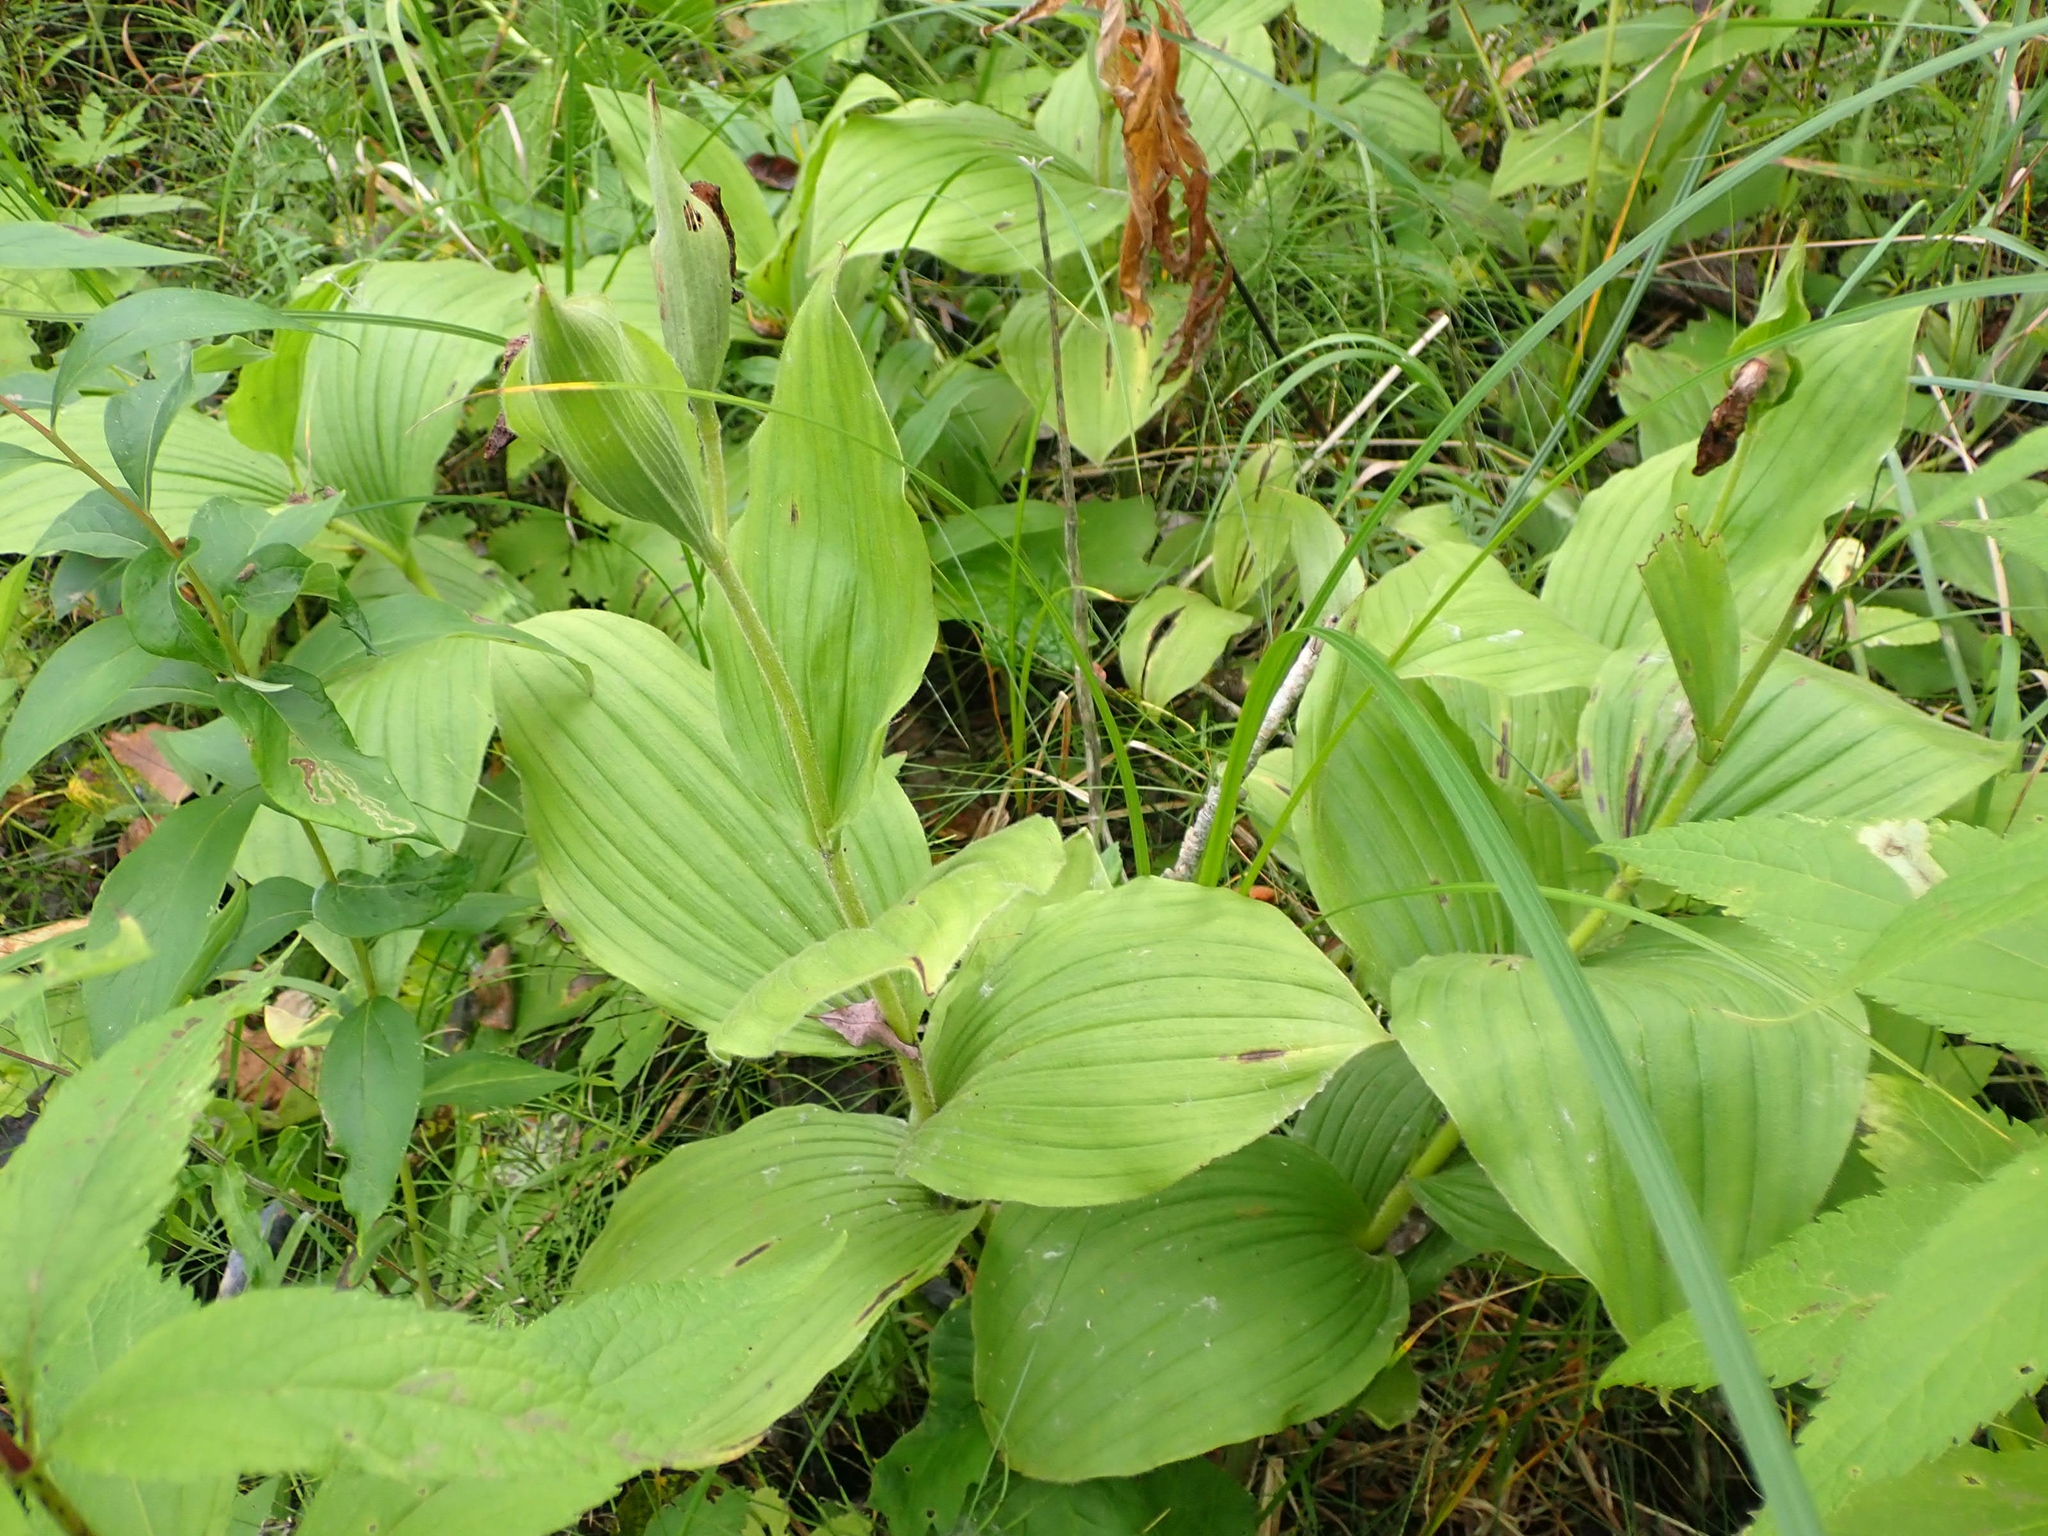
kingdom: Plantae
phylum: Tracheophyta
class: Liliopsida
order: Asparagales
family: Orchidaceae
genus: Cypripedium
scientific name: Cypripedium reginae
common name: Queen lady's-slipper
